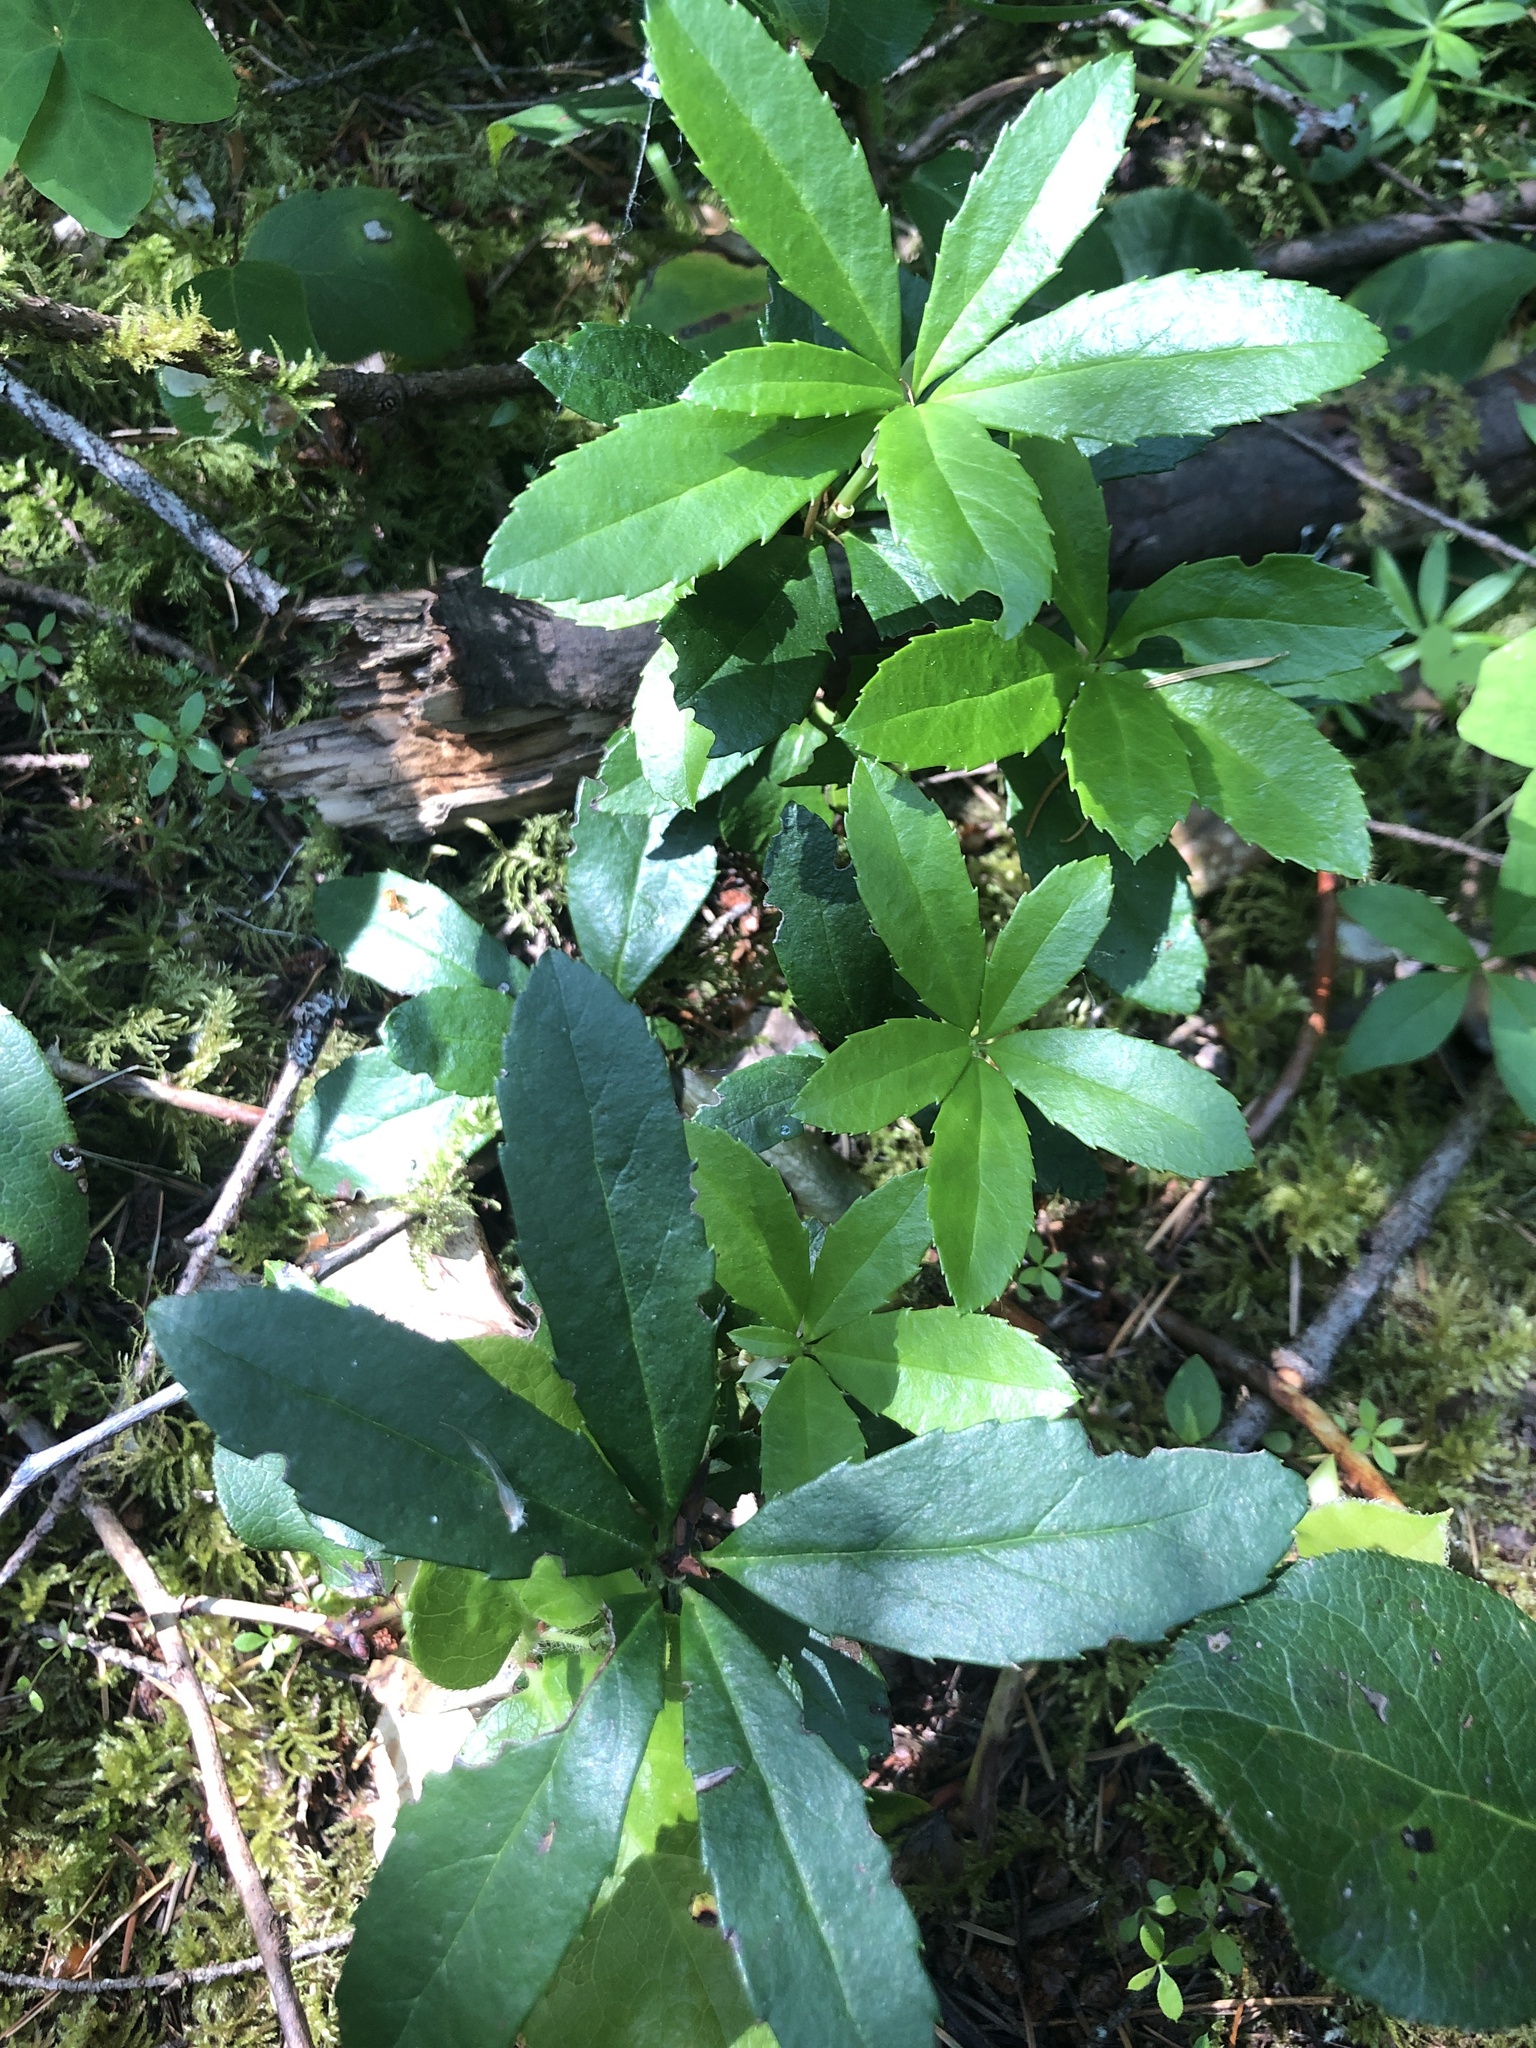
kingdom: Plantae
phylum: Tracheophyta
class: Magnoliopsida
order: Ericales
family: Ericaceae
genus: Chimaphila
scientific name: Chimaphila umbellata
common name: Pipsissewa
